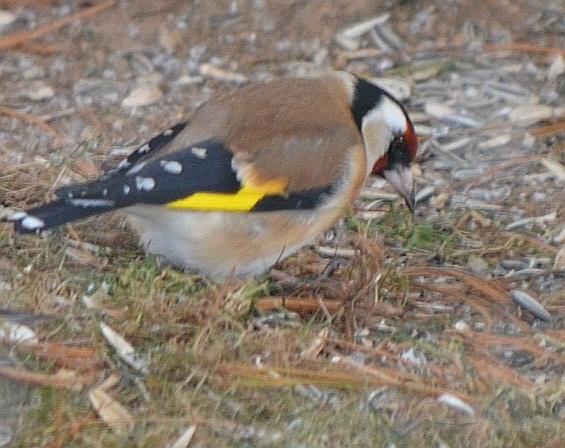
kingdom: Animalia
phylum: Chordata
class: Aves
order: Passeriformes
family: Fringillidae
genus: Carduelis
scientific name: Carduelis carduelis
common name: European goldfinch
